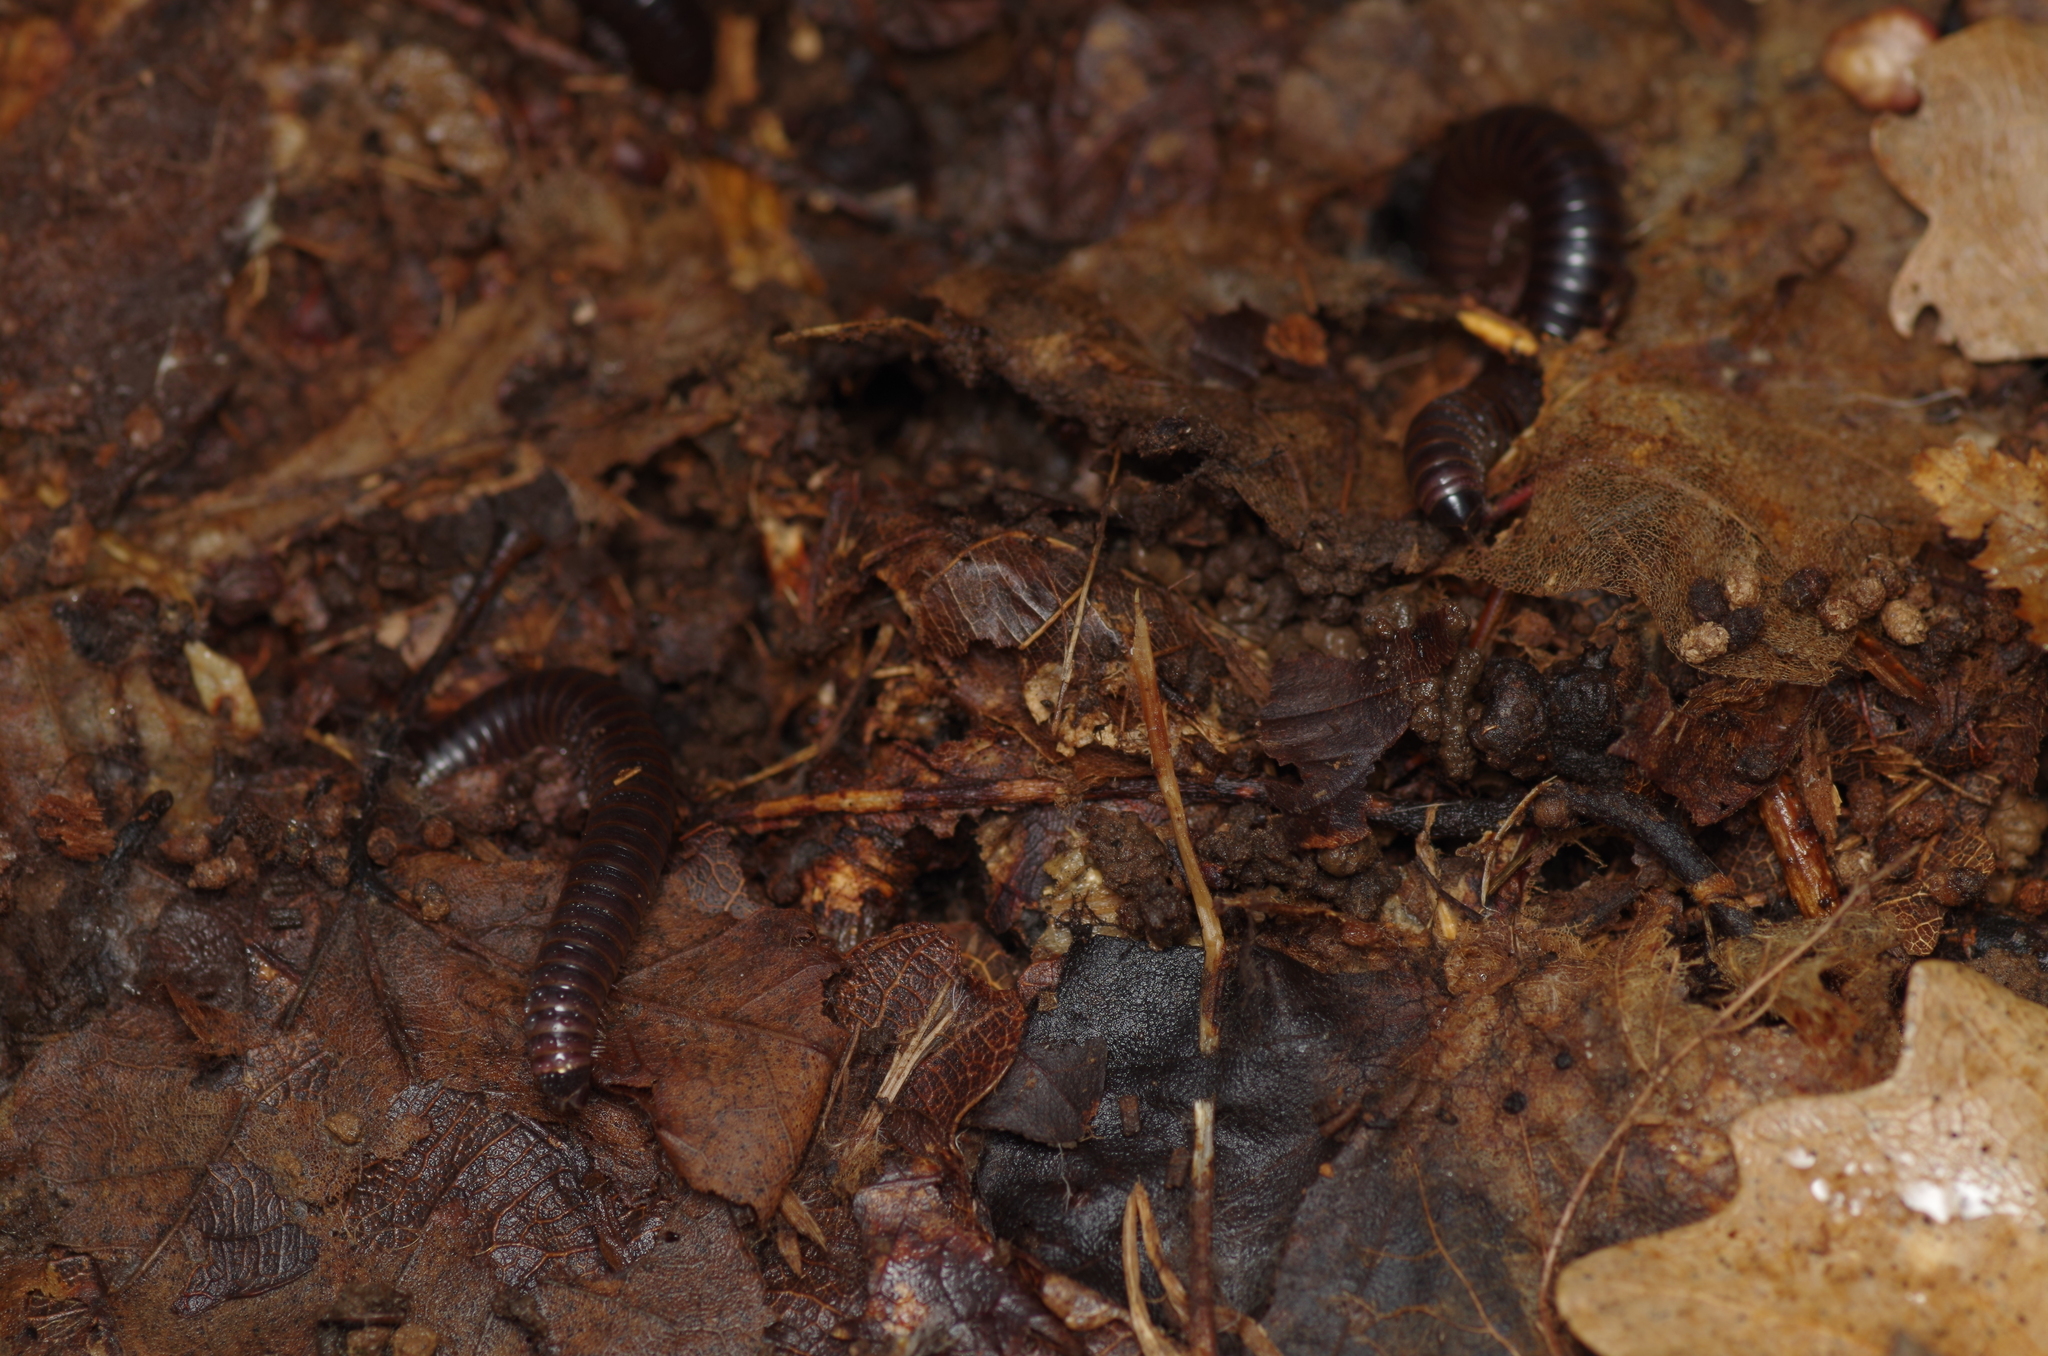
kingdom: Animalia
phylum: Arthropoda
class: Diplopoda
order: Julida
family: Julidae
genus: Cylindroiulus
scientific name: Cylindroiulus caeruleocinctus
